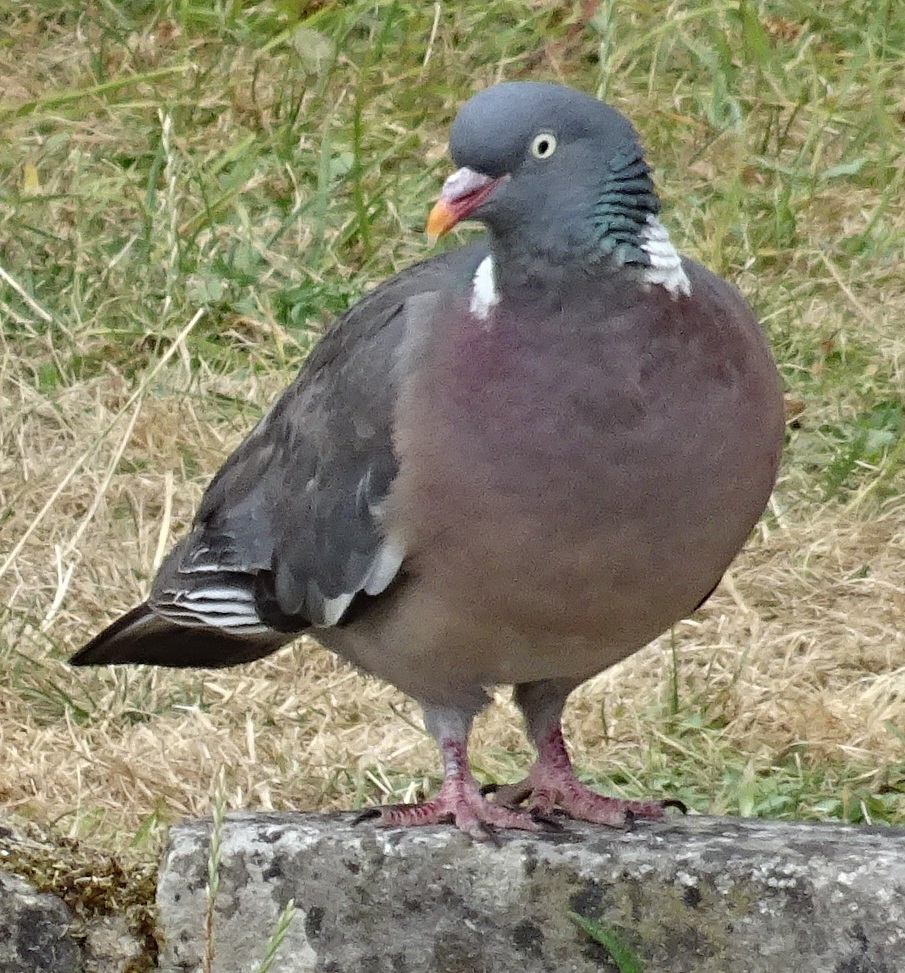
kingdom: Animalia
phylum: Chordata
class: Aves
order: Columbiformes
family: Columbidae
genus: Columba
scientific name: Columba palumbus
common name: Common wood pigeon
